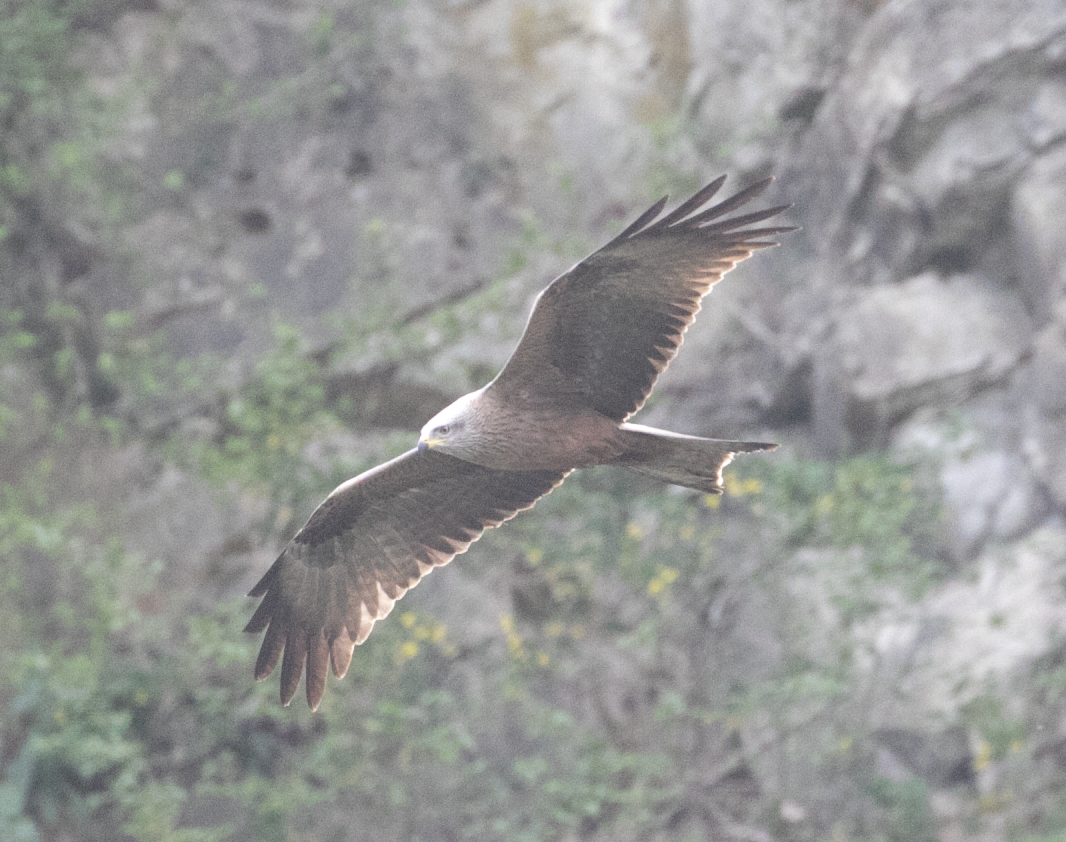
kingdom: Animalia
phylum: Chordata
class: Aves
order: Accipitriformes
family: Accipitridae
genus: Milvus
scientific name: Milvus migrans
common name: Black kite
